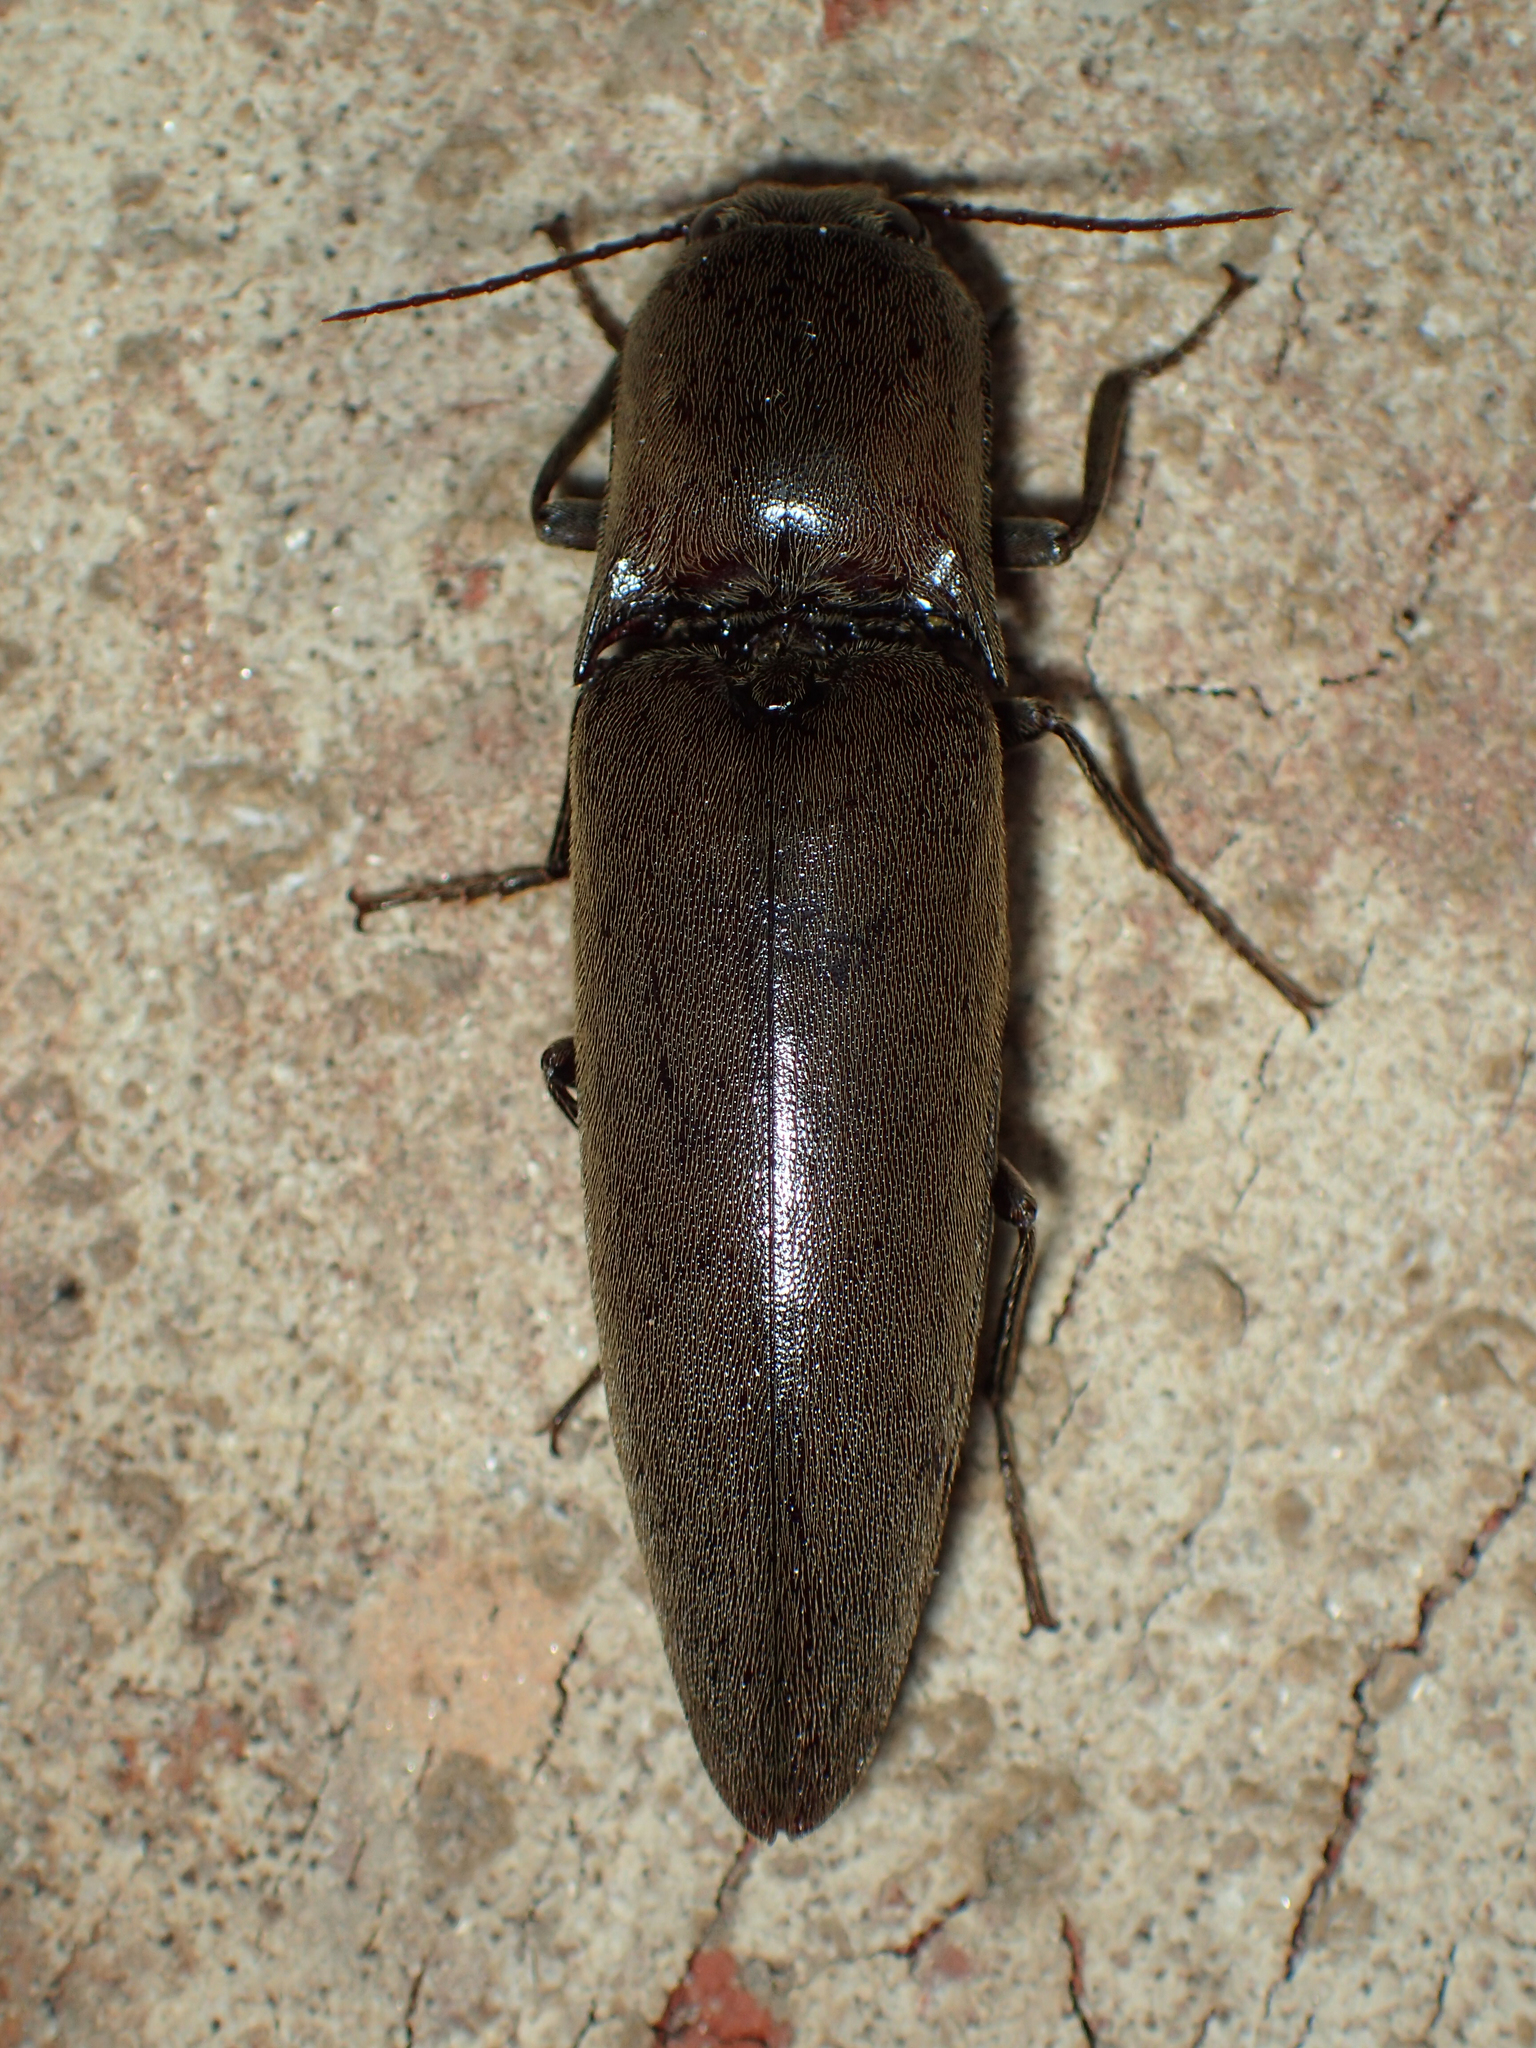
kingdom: Animalia
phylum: Arthropoda
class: Insecta
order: Coleoptera
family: Elateridae
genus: Orthostethus
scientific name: Orthostethus infuscatus
